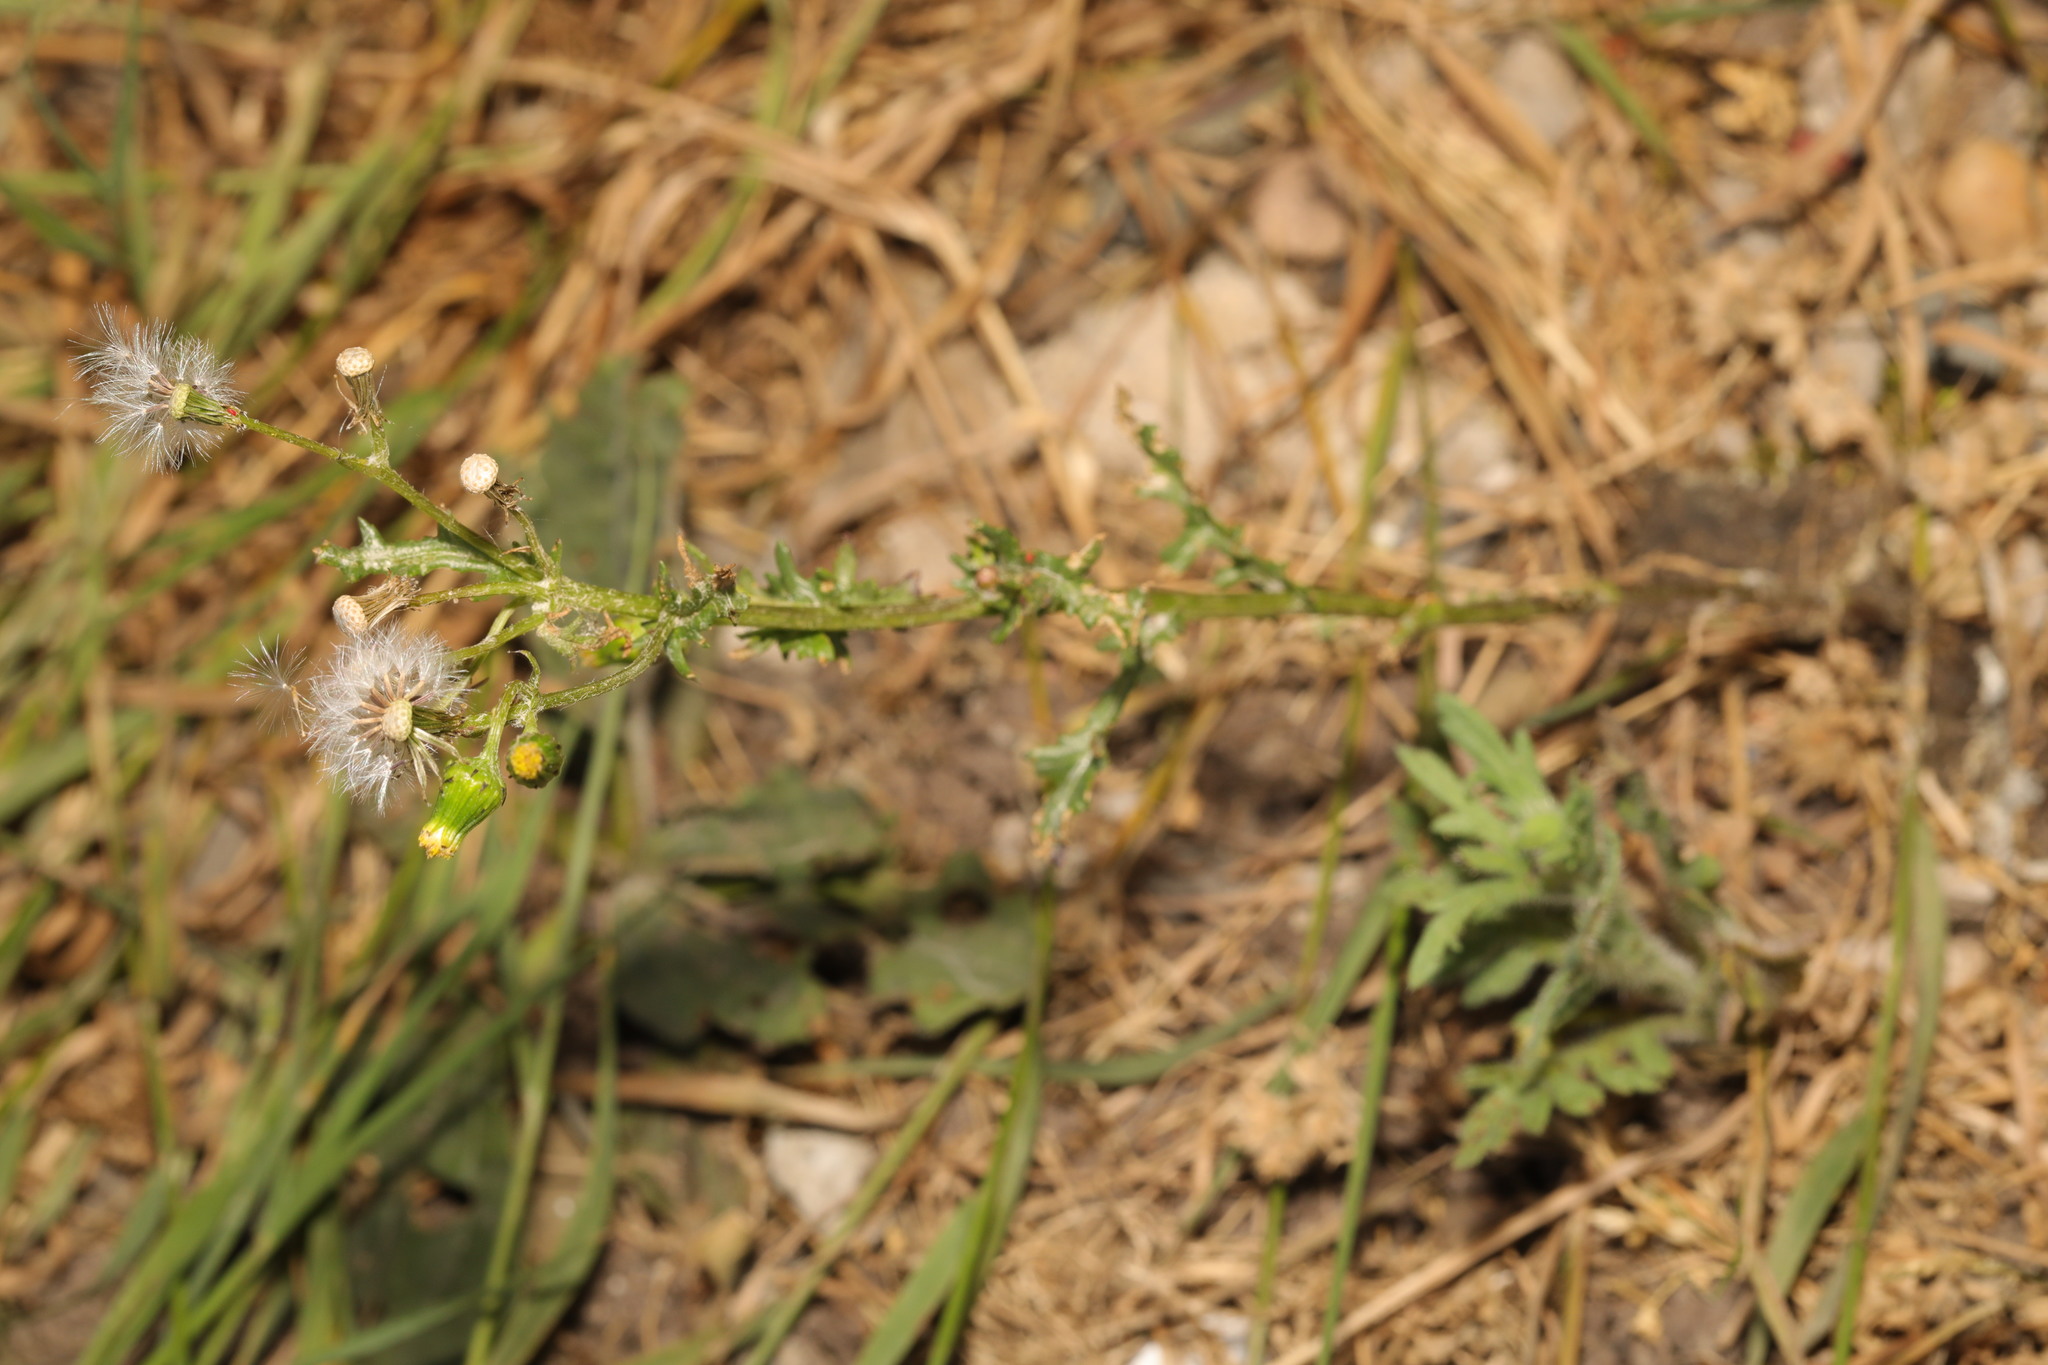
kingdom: Plantae
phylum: Tracheophyta
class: Magnoliopsida
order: Asterales
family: Asteraceae
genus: Senecio
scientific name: Senecio vulgaris
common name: Old-man-in-the-spring
